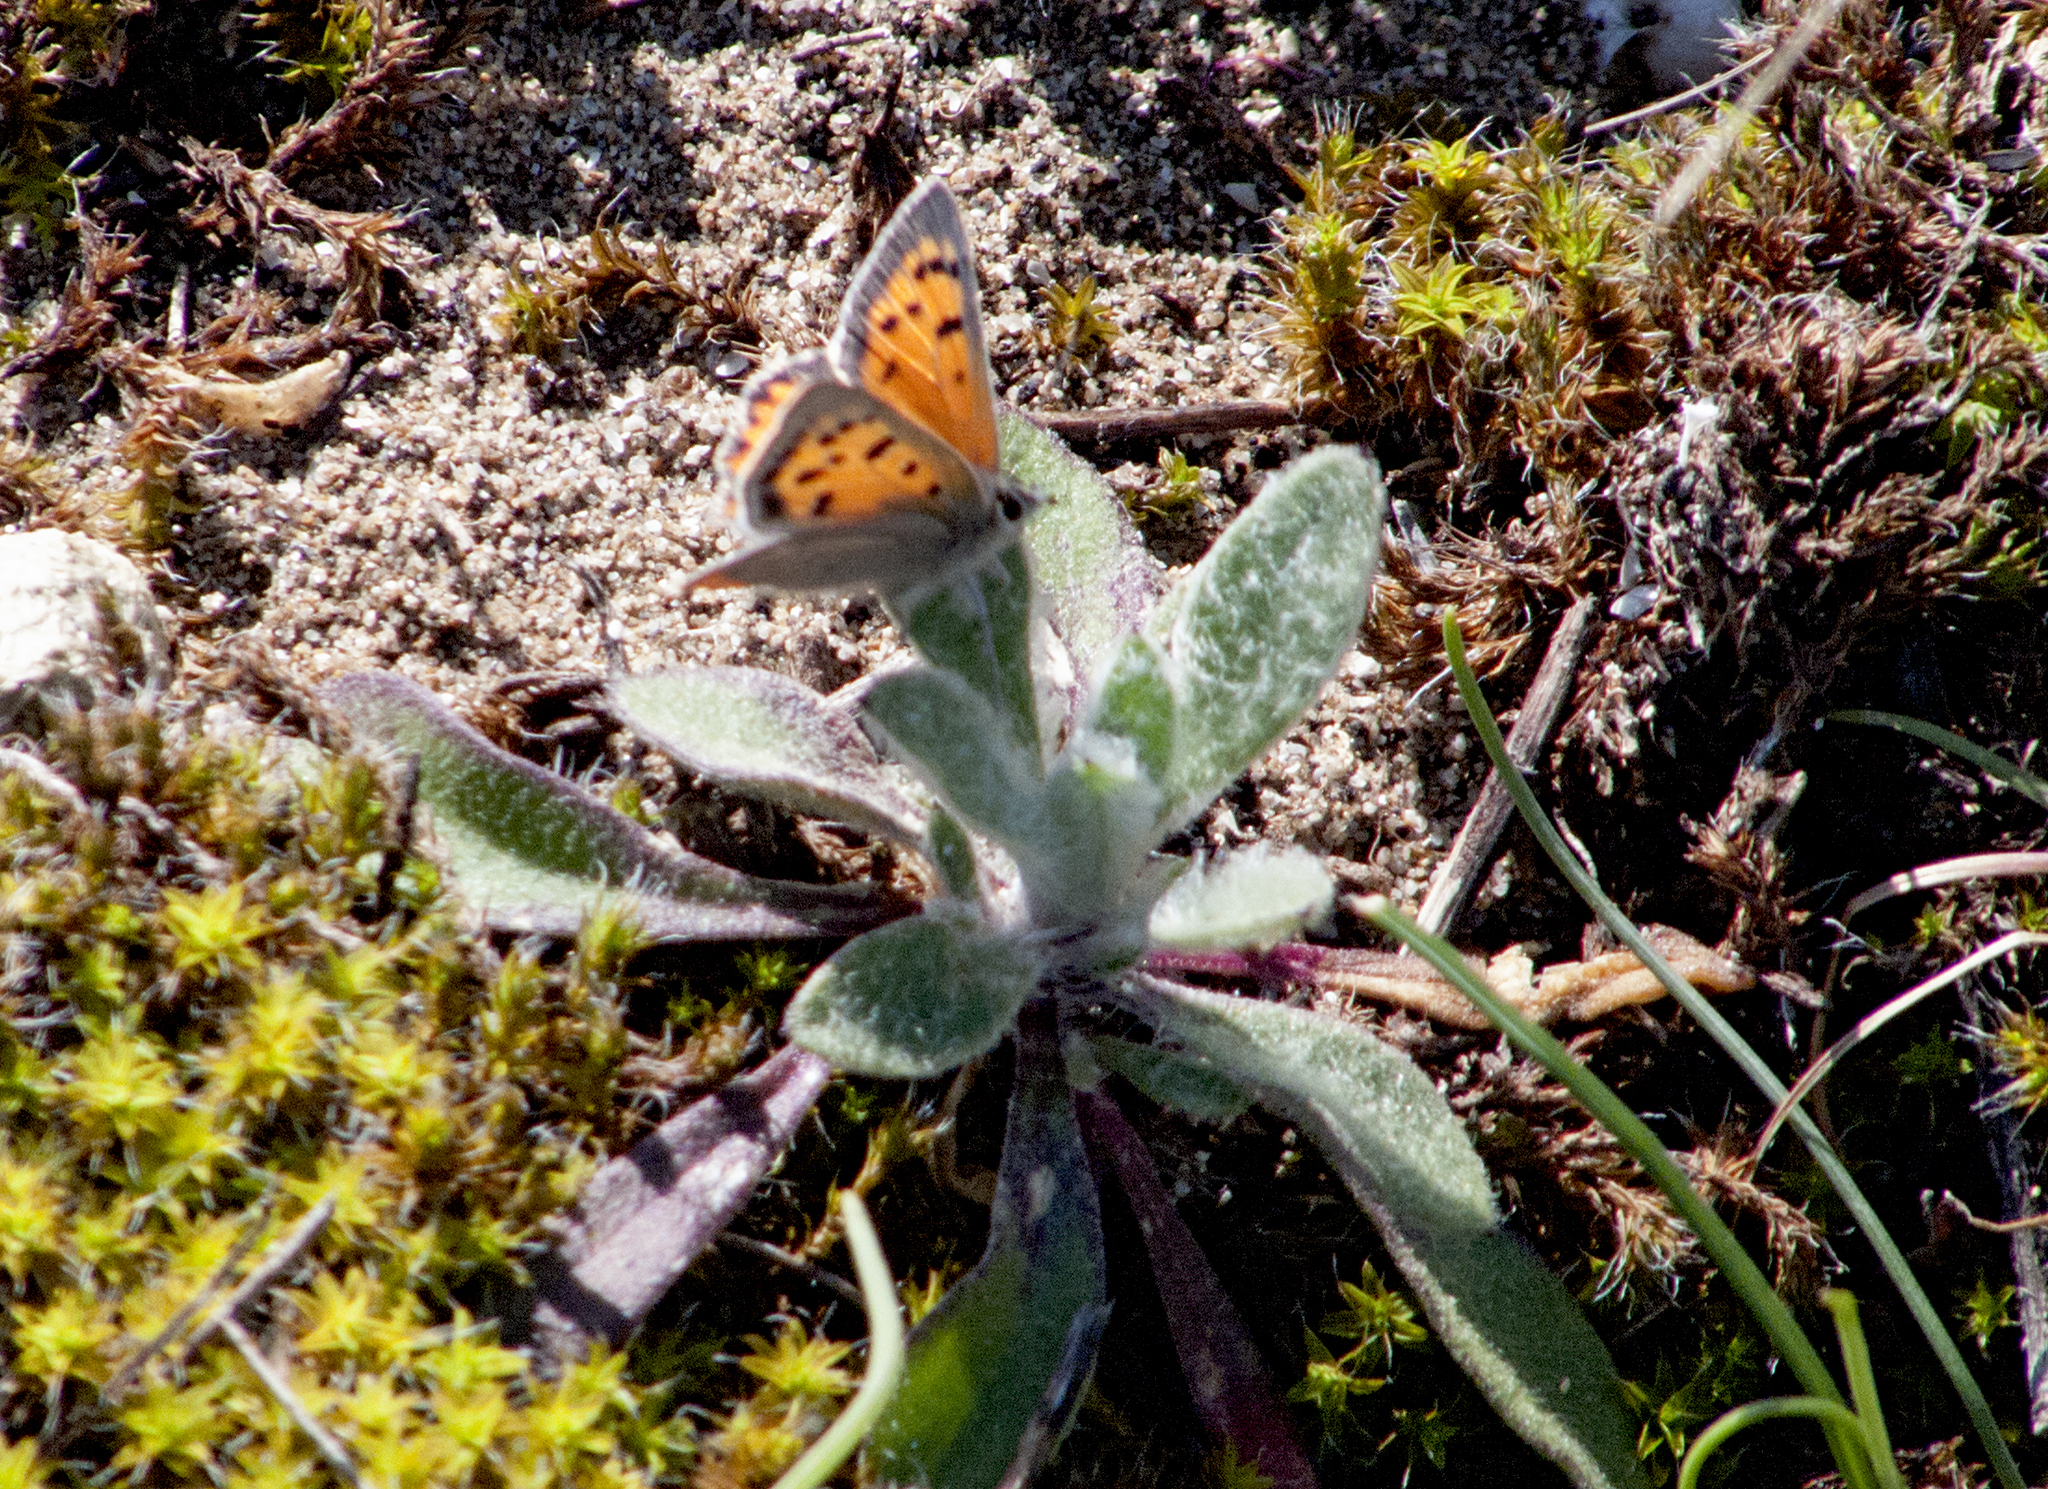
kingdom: Animalia
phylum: Arthropoda
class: Insecta
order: Lepidoptera
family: Lycaenidae
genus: Lycaena
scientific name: Lycaena phlaeas
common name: Small copper
